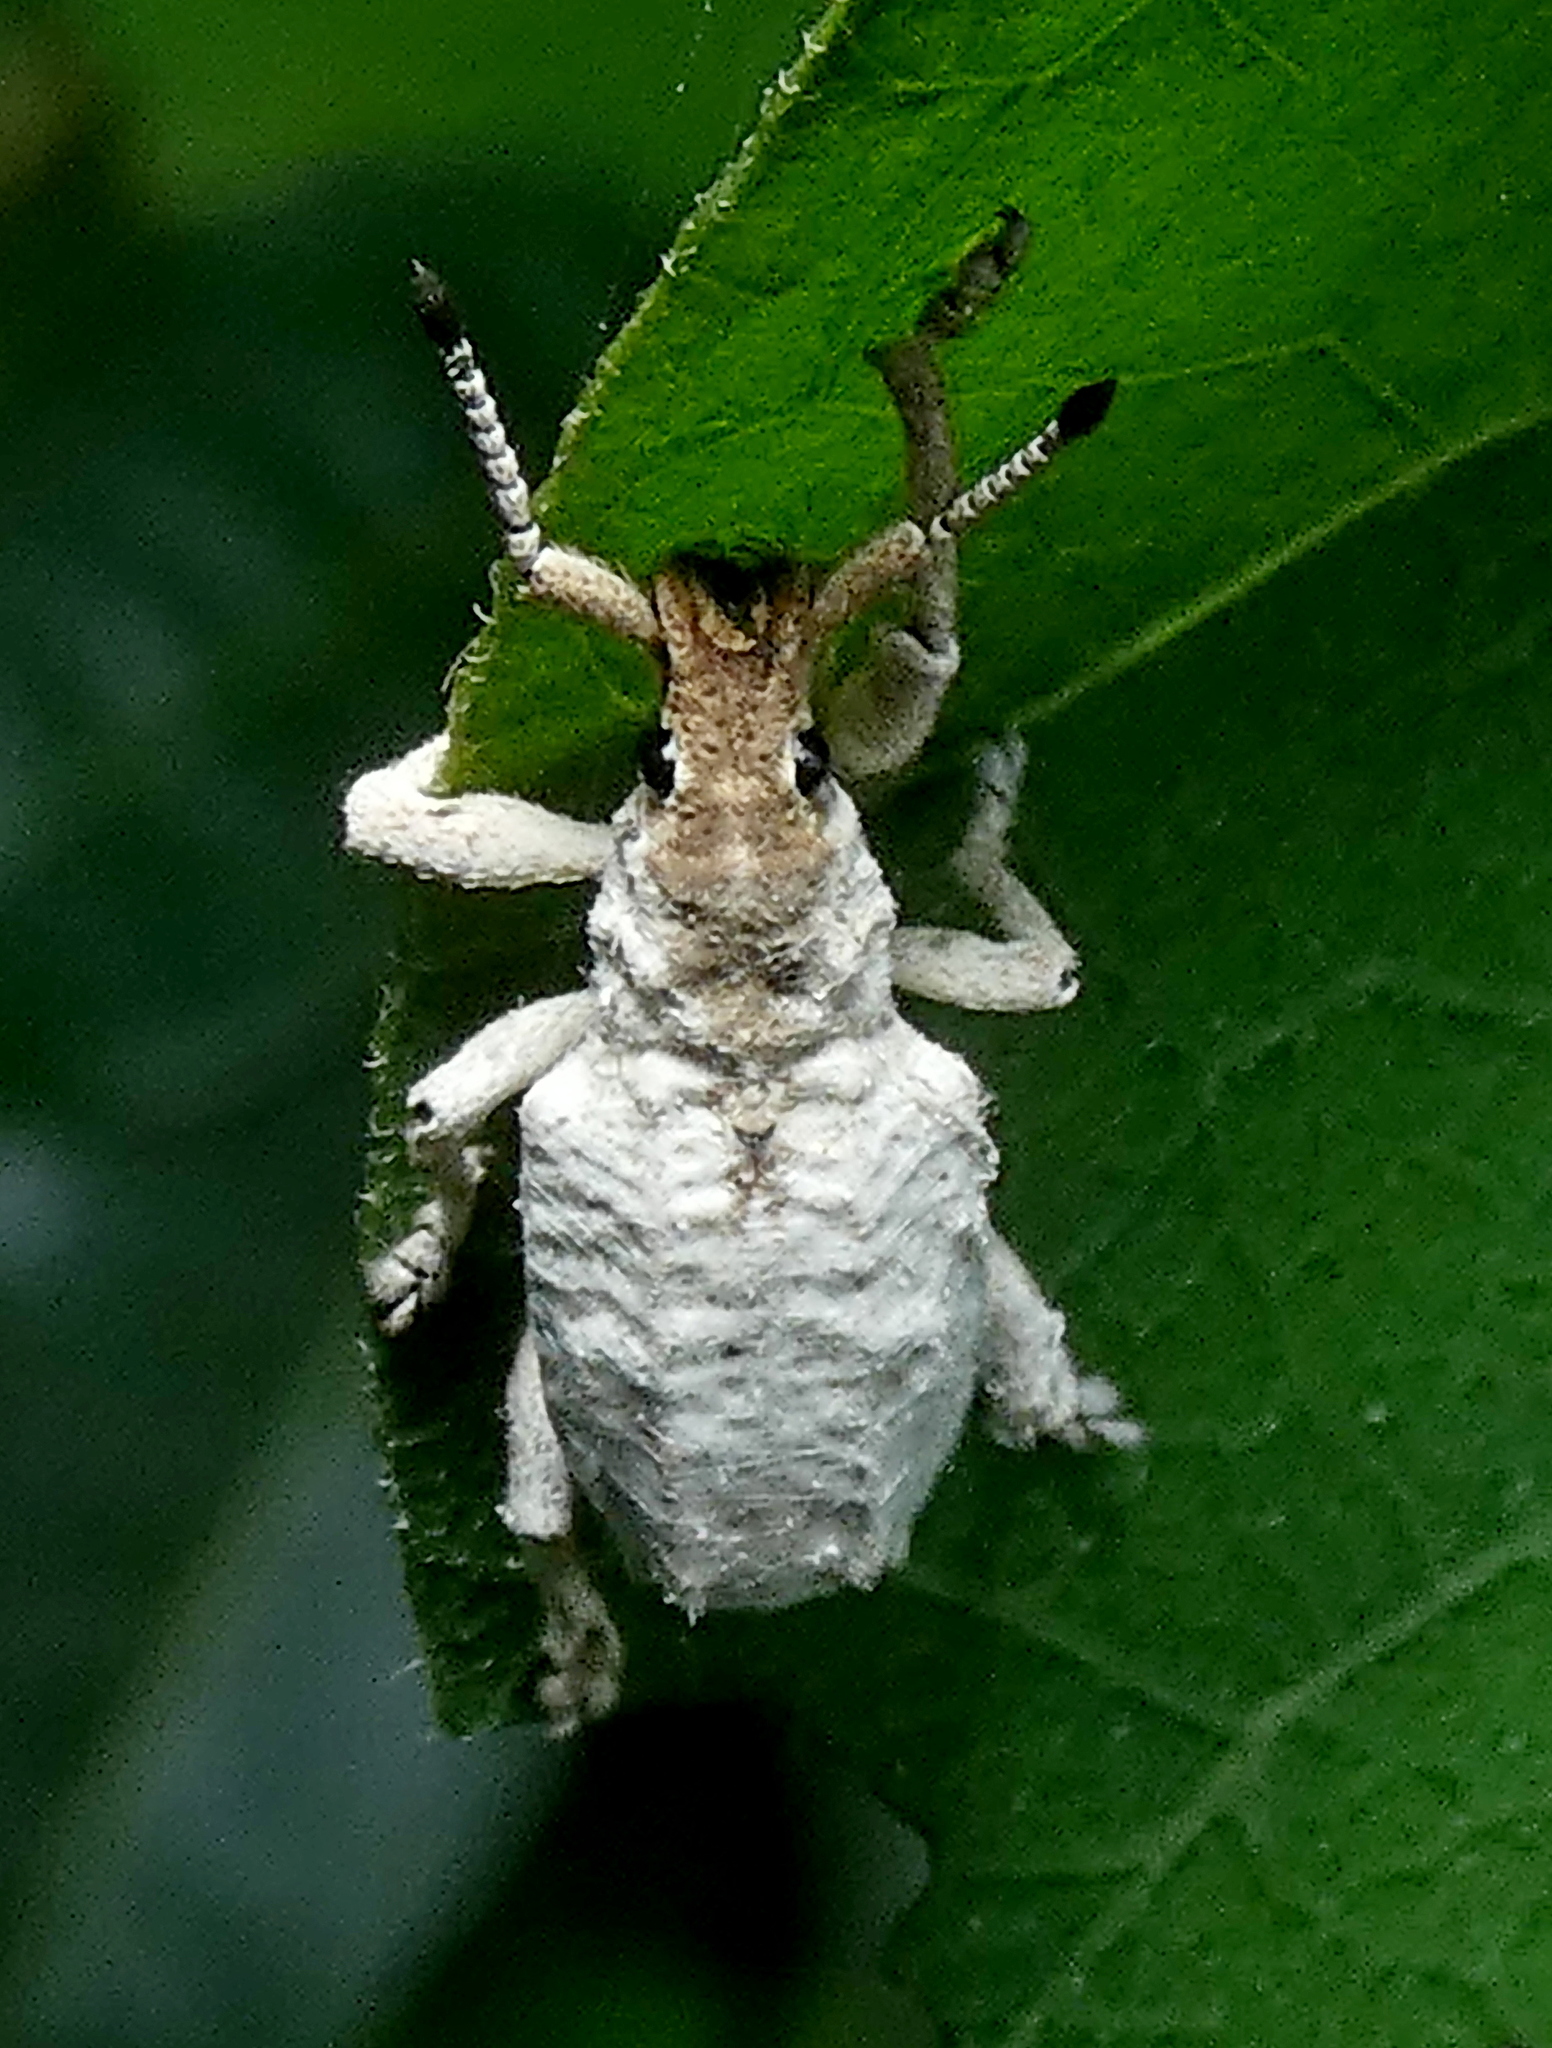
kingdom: Animalia
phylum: Arthropoda
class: Insecta
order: Coleoptera
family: Curculionidae
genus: Compsus
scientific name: Compsus niveus
